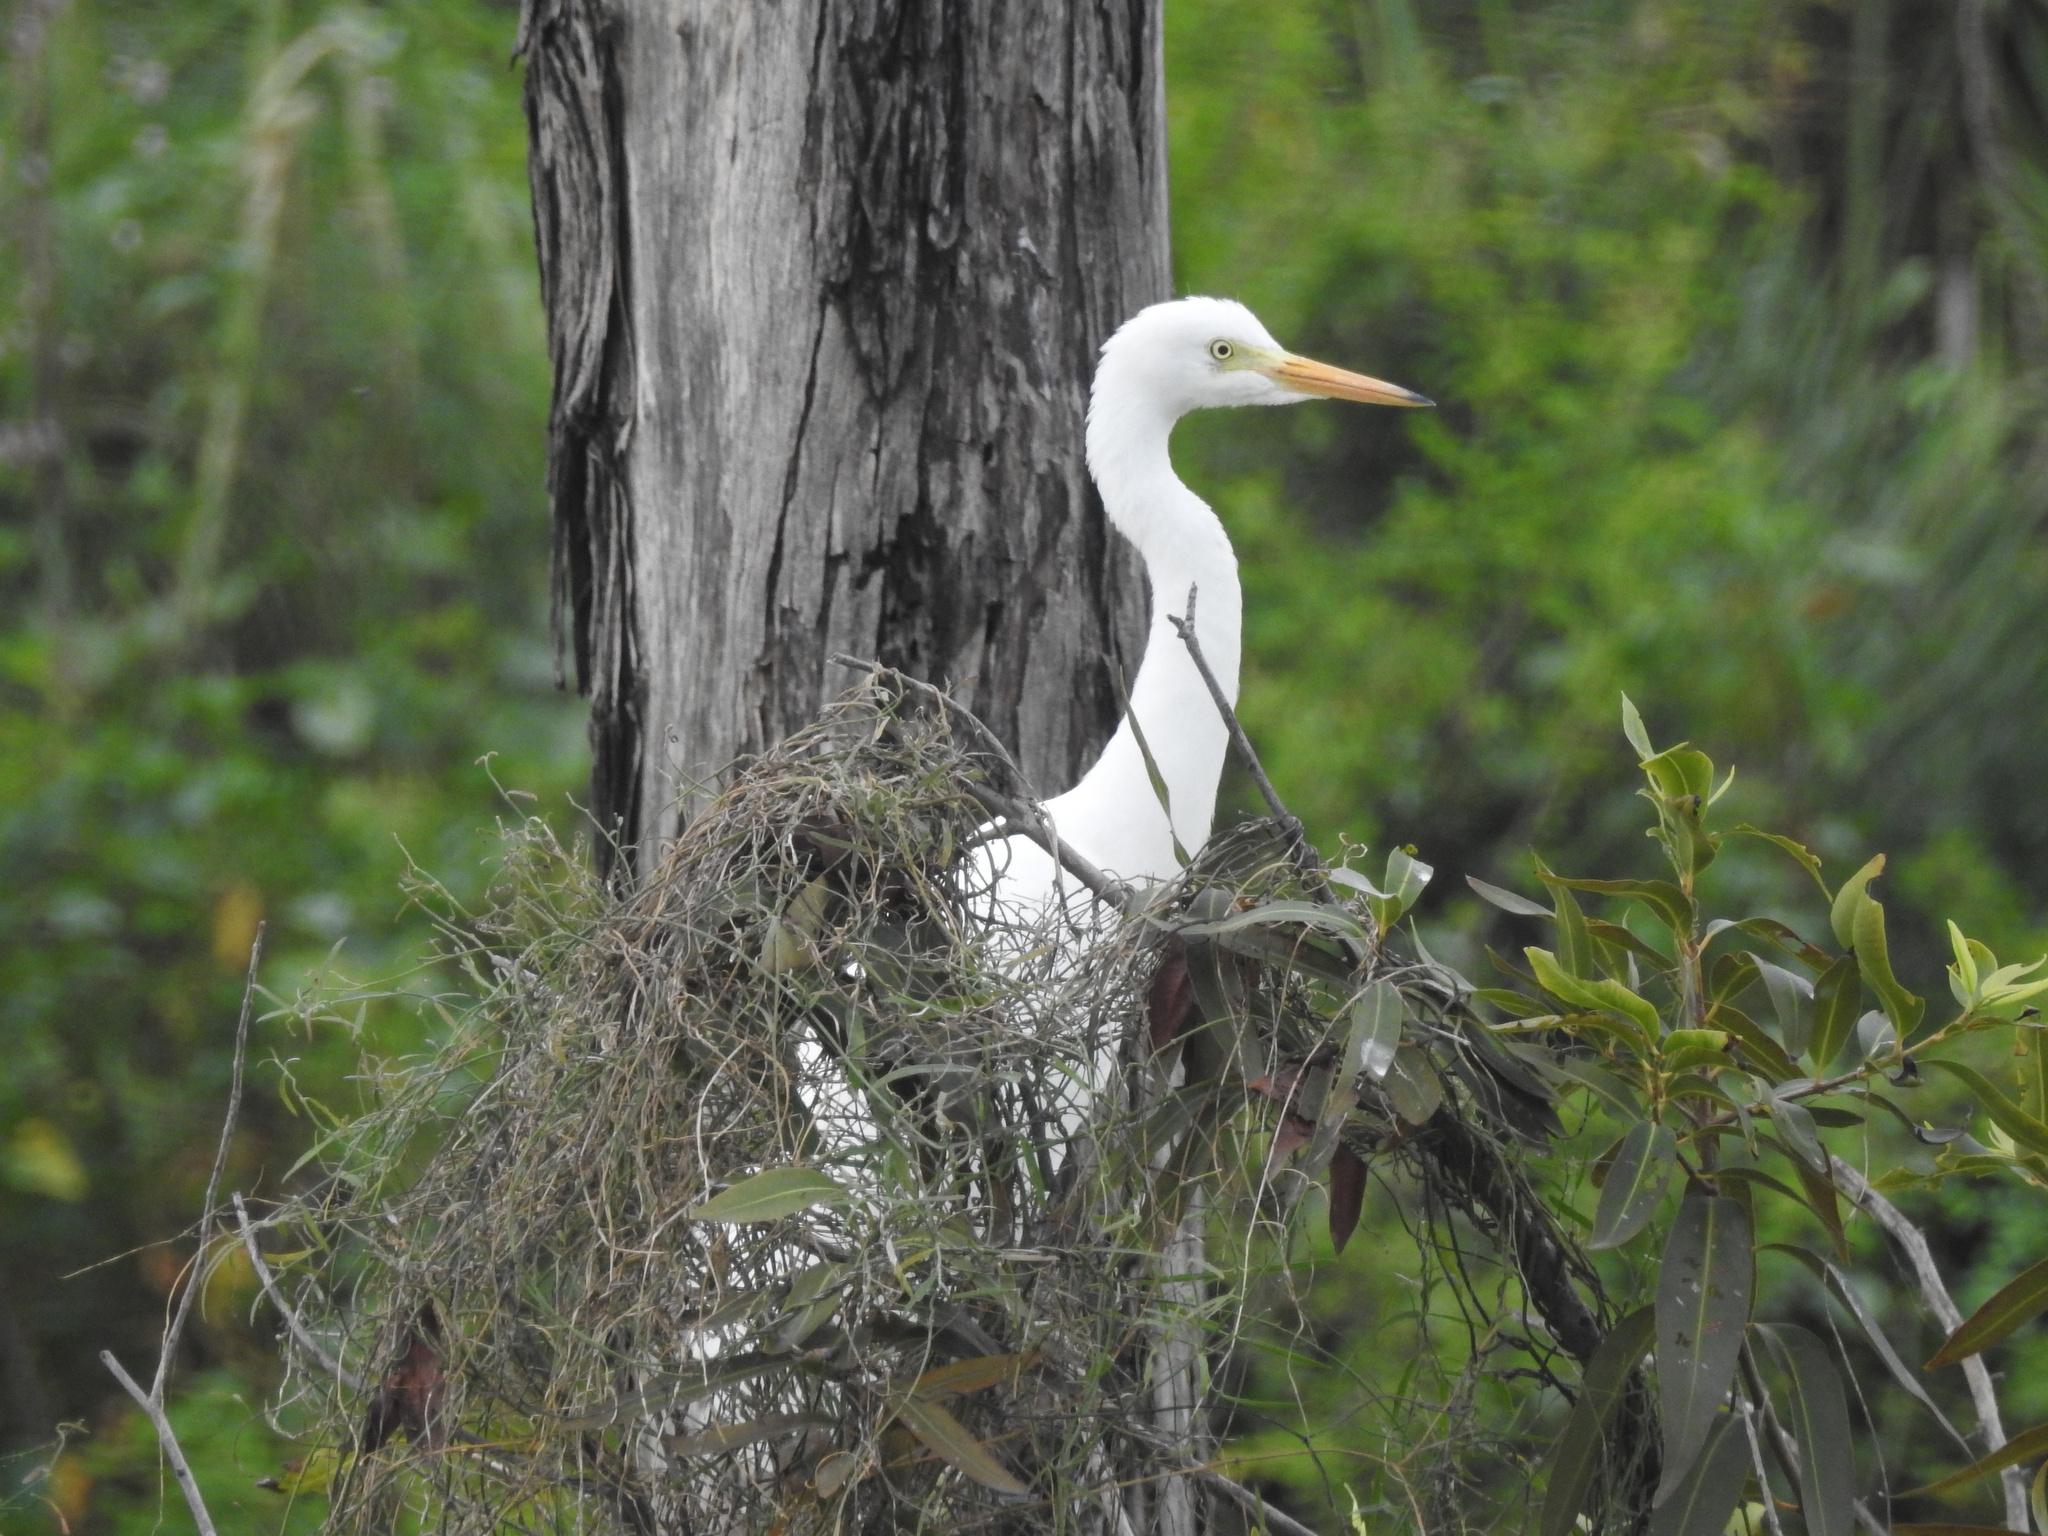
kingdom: Animalia
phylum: Chordata
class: Aves
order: Pelecaniformes
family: Ardeidae
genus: Egretta
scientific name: Egretta intermedia
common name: Intermediate egret
